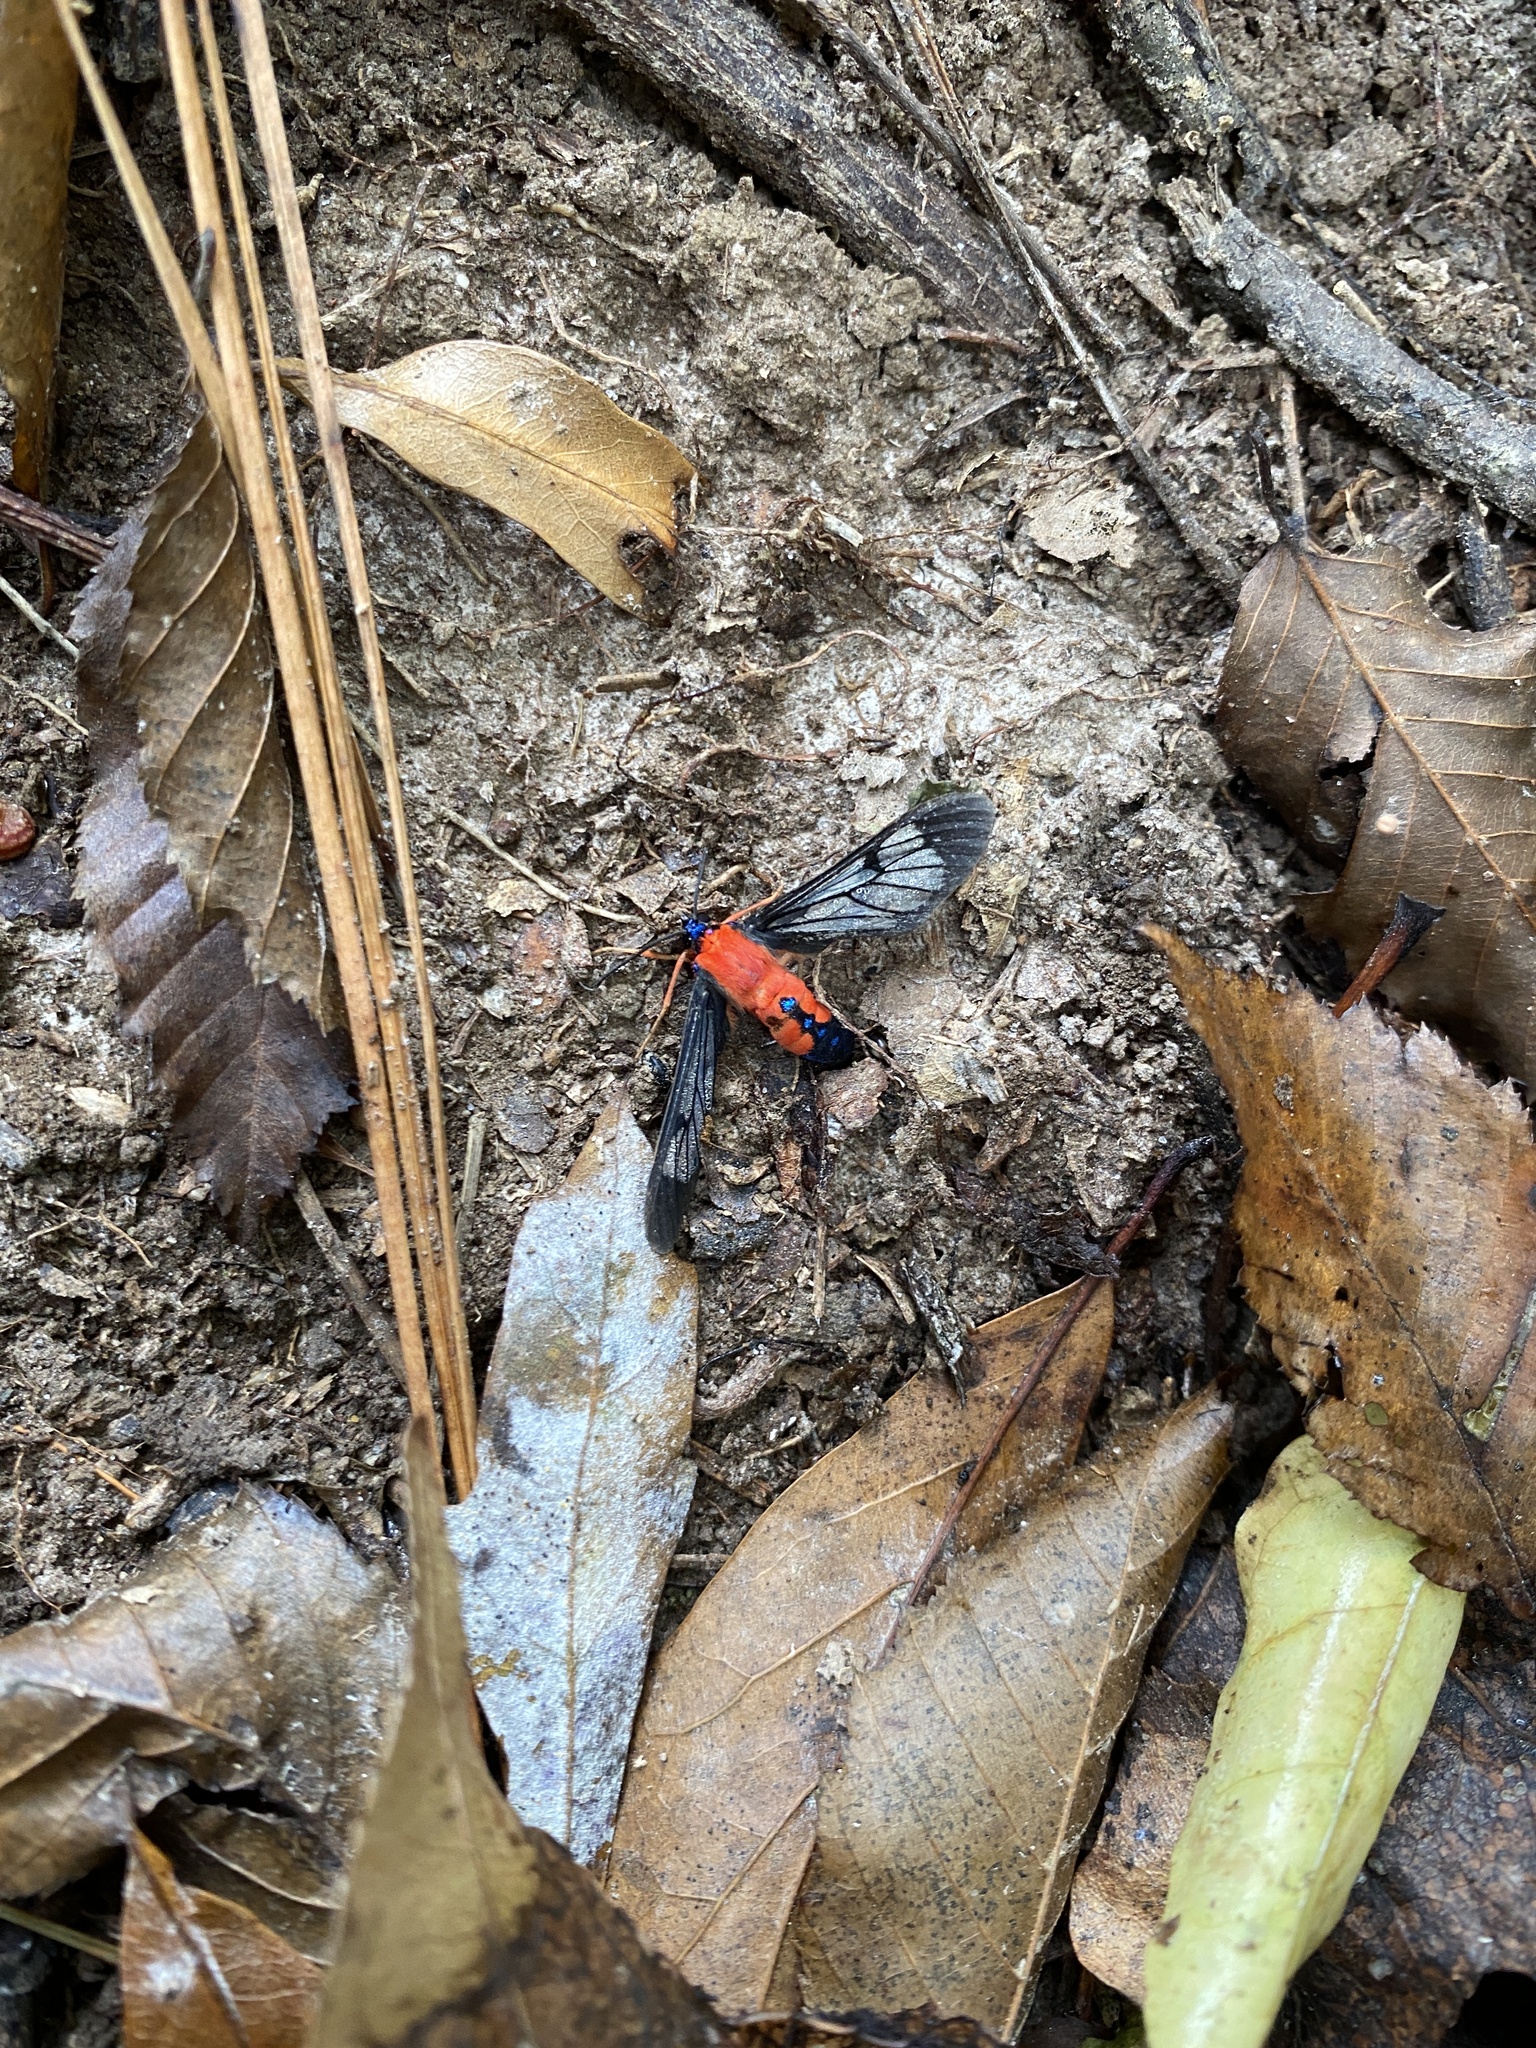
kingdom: Animalia
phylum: Arthropoda
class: Insecta
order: Lepidoptera
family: Erebidae
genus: Cosmosoma
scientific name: Cosmosoma myrodora
